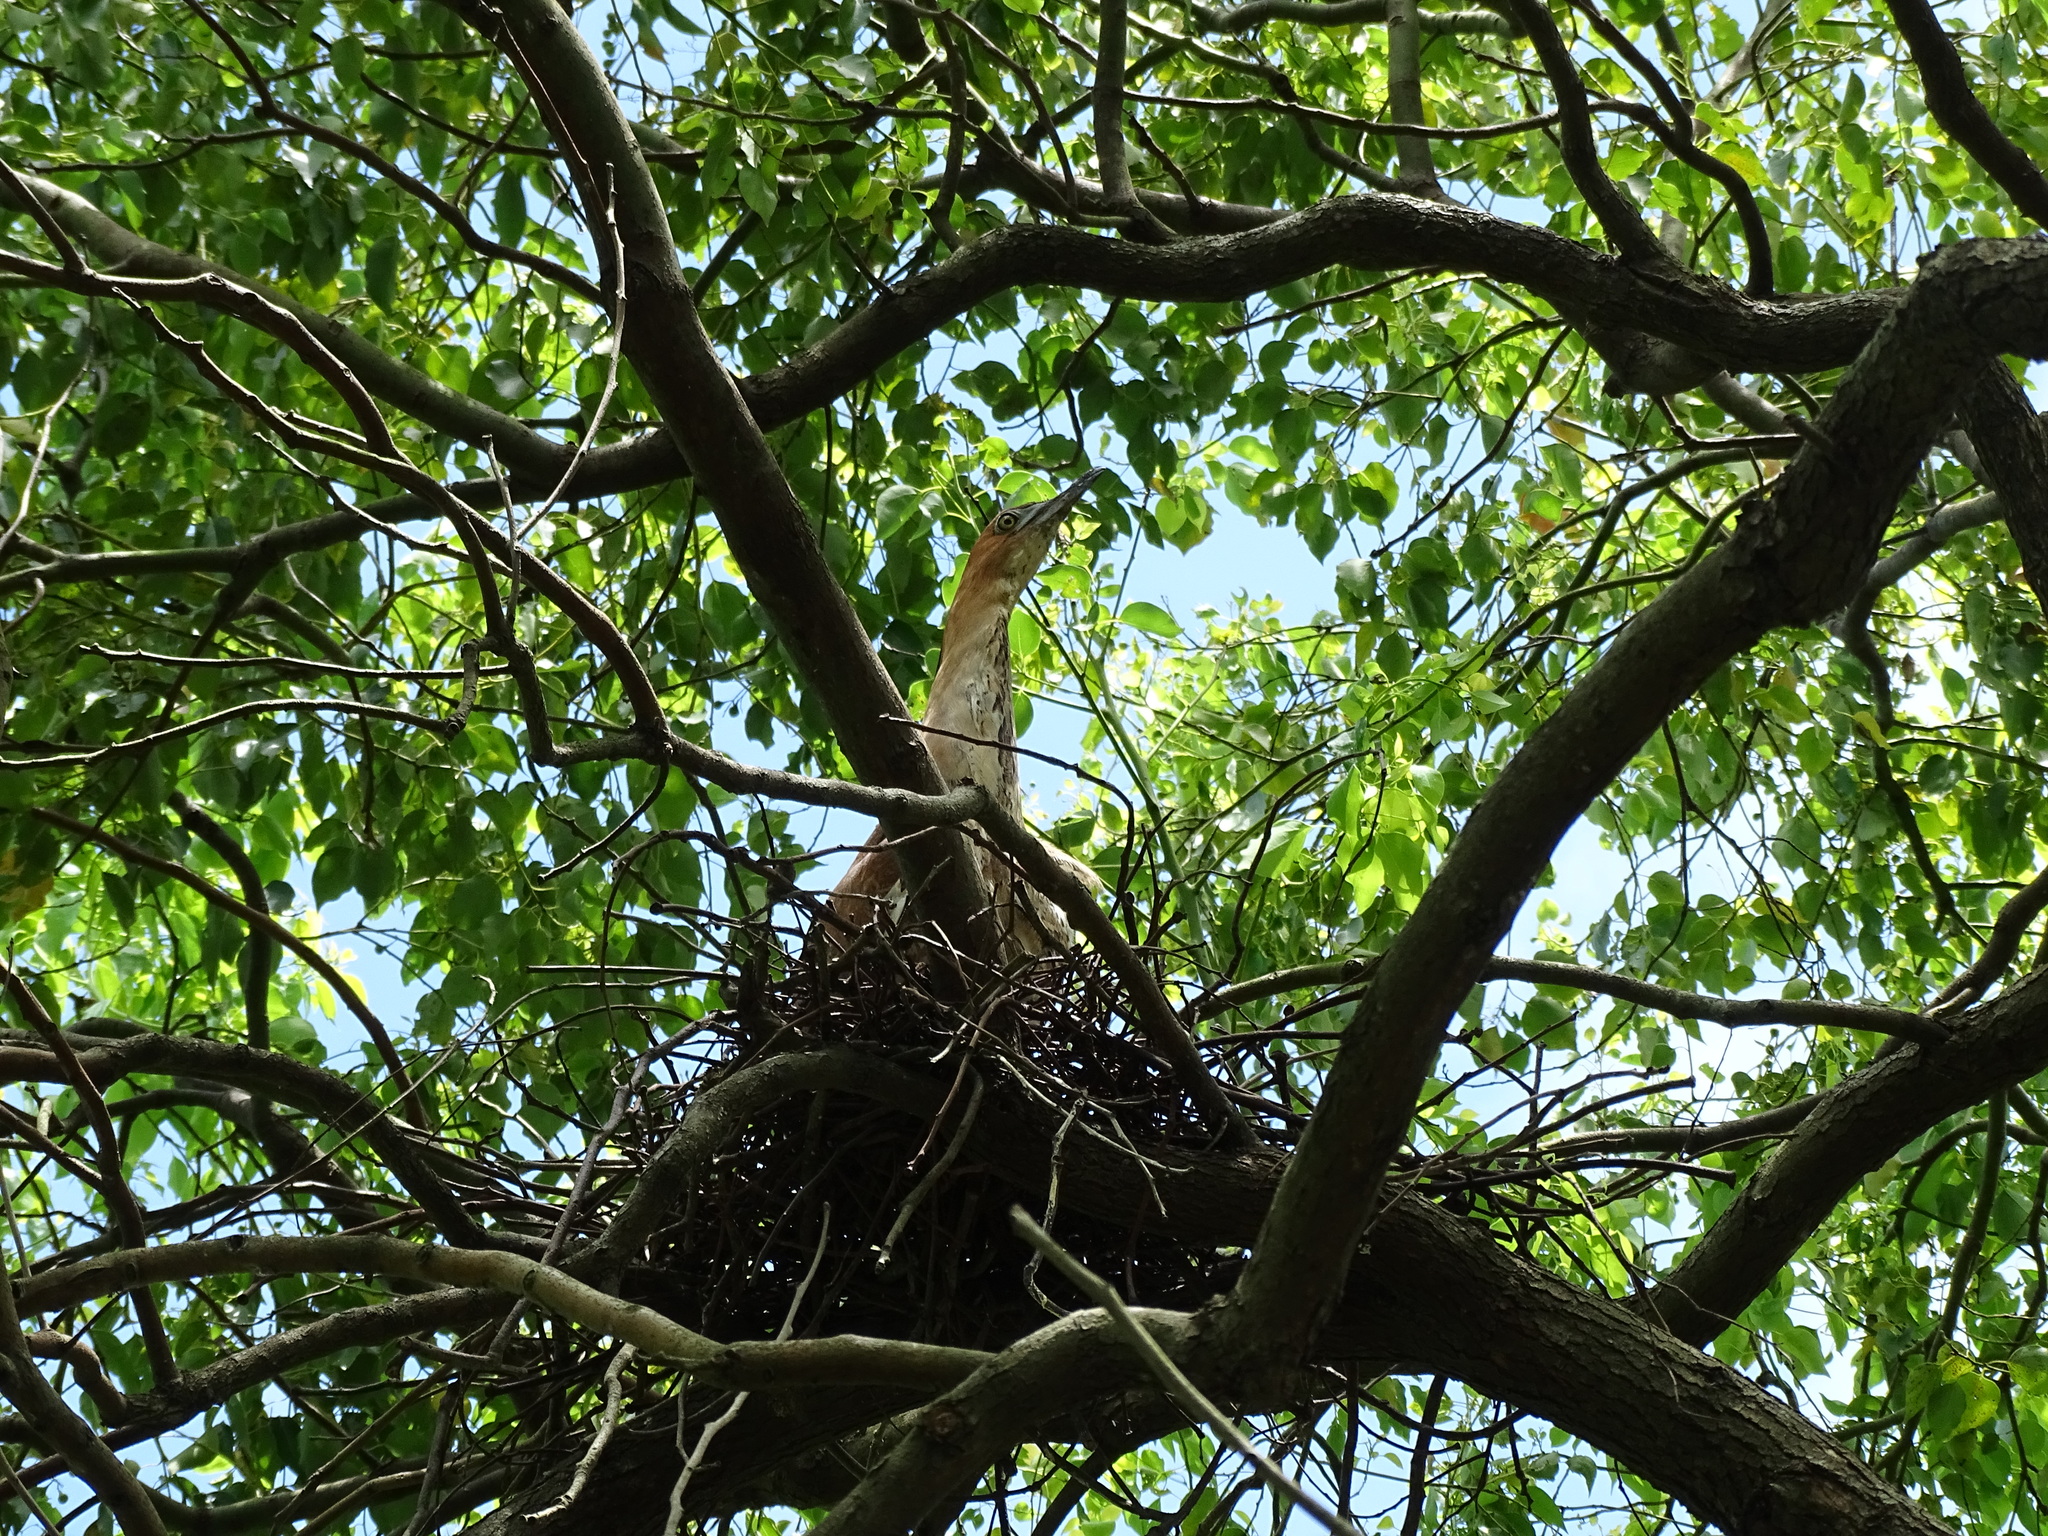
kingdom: Animalia
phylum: Chordata
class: Aves
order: Pelecaniformes
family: Ardeidae
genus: Gorsachius
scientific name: Gorsachius melanolophus
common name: Malayan night heron
